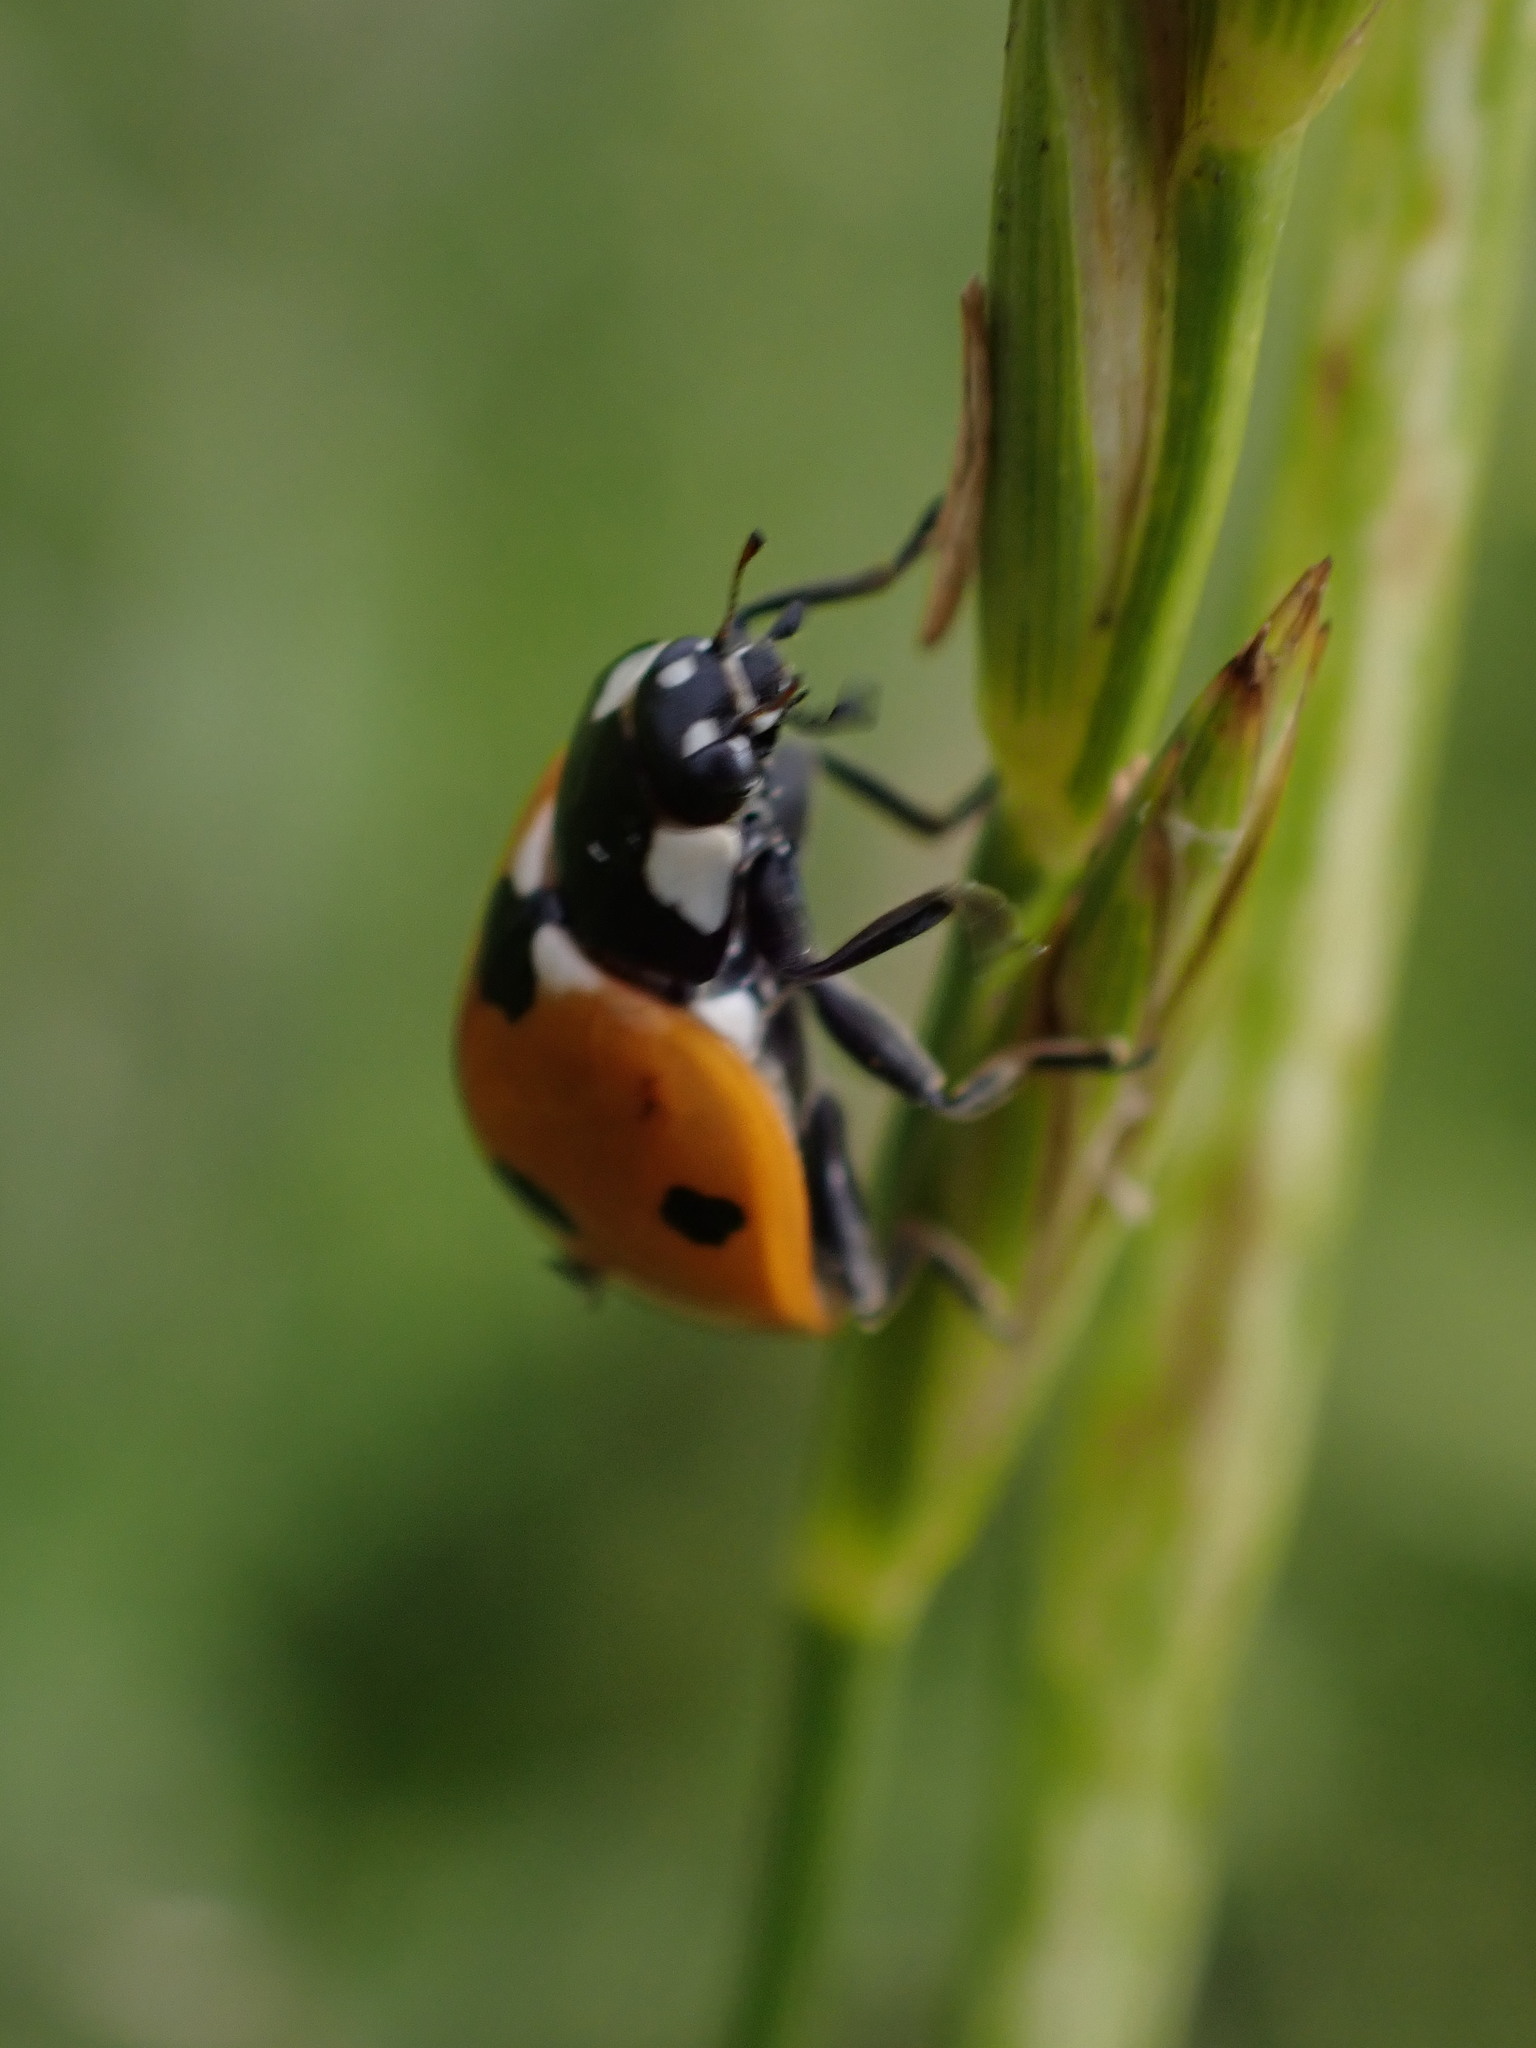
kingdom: Animalia
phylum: Arthropoda
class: Insecta
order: Coleoptera
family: Coccinellidae
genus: Coccinella
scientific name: Coccinella septempunctata
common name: Sevenspotted lady beetle
